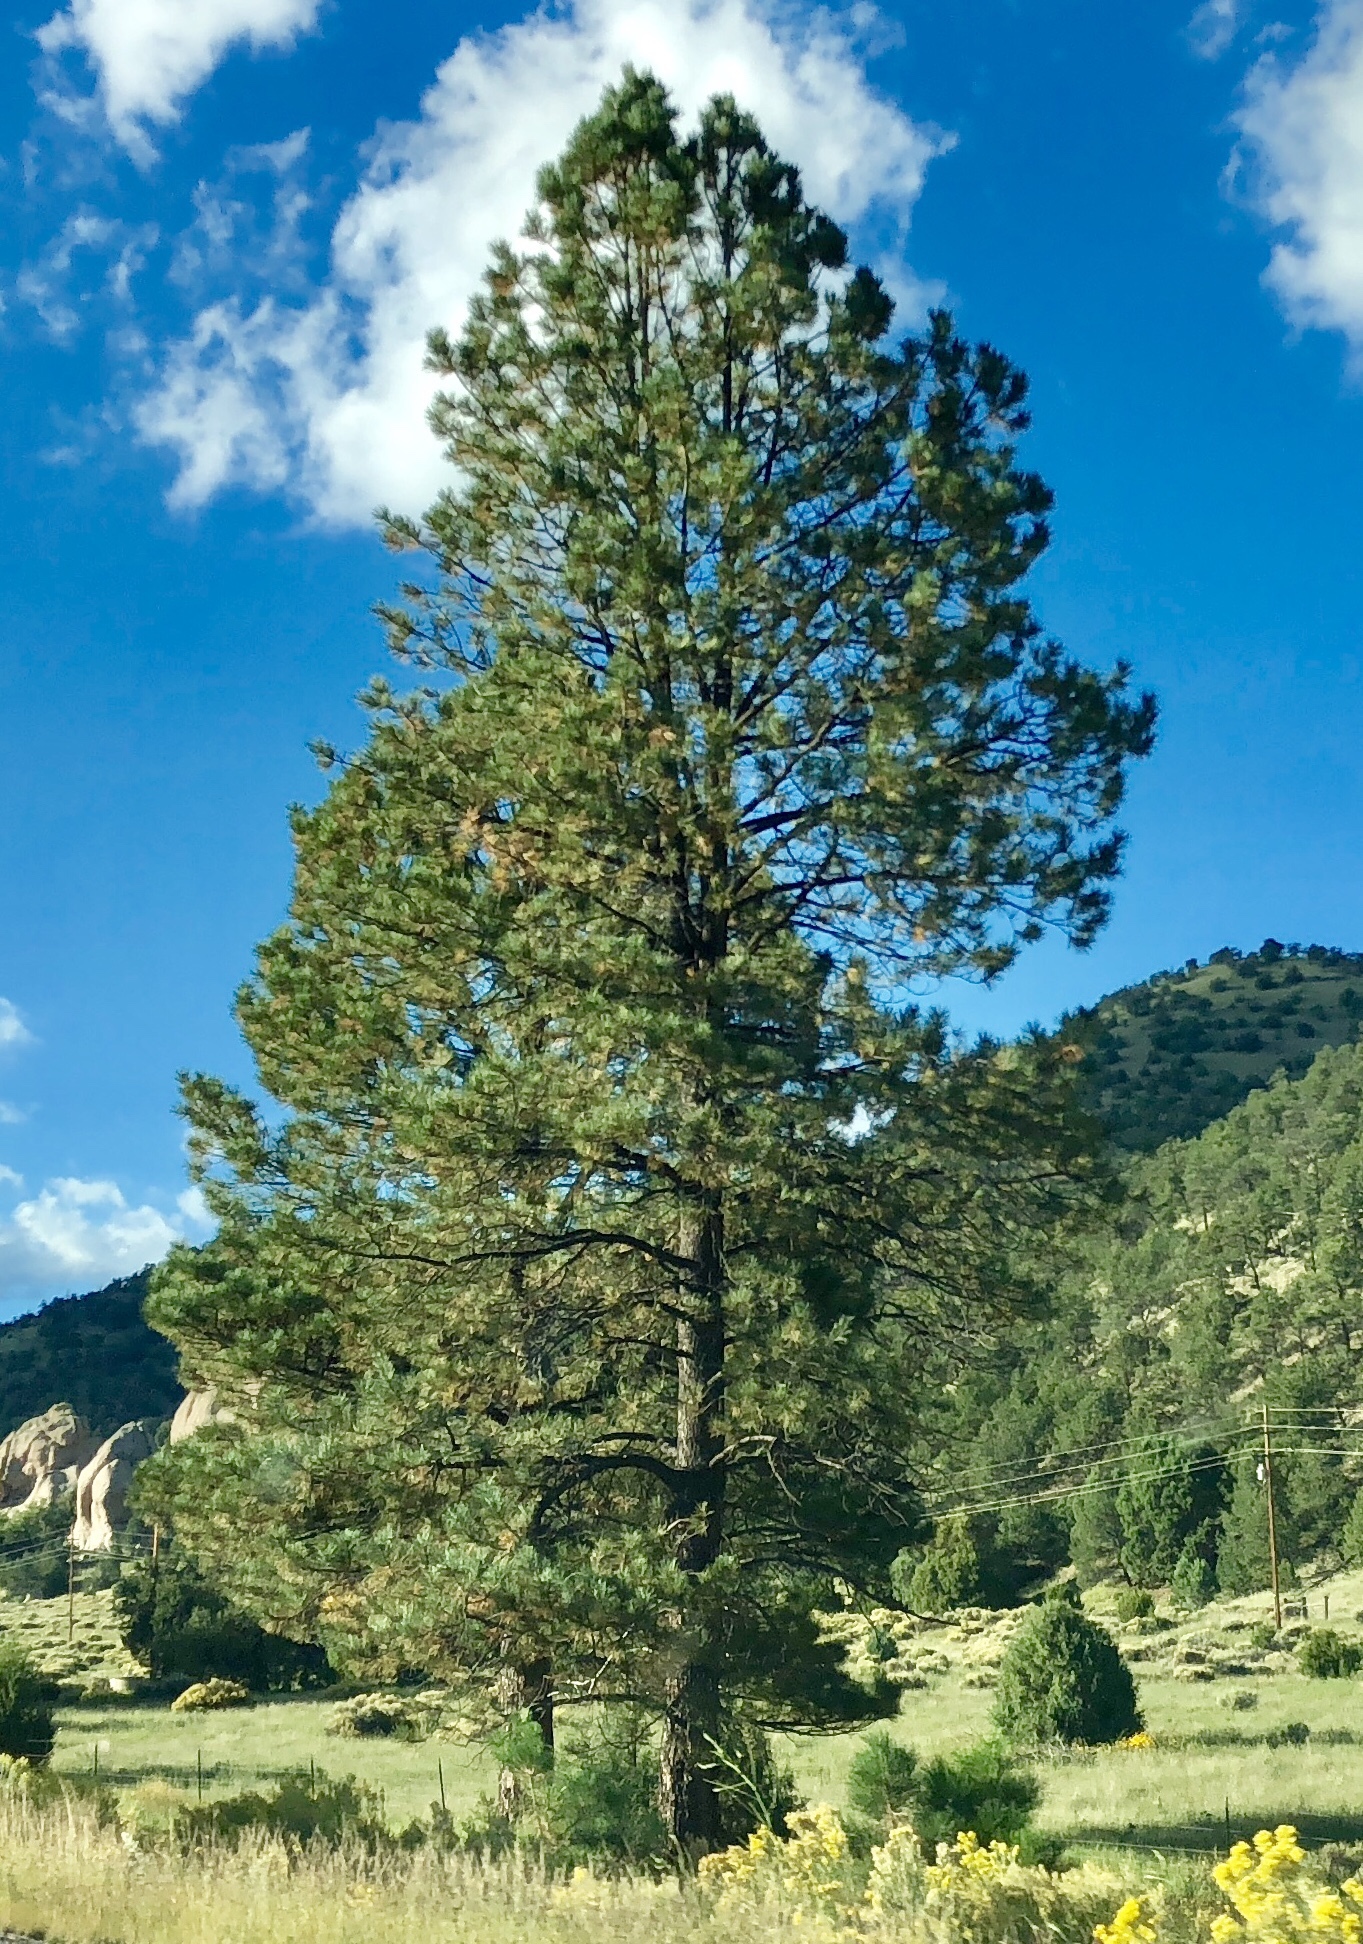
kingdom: Plantae
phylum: Tracheophyta
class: Pinopsida
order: Pinales
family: Pinaceae
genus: Pinus
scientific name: Pinus ponderosa
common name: Western yellow-pine
